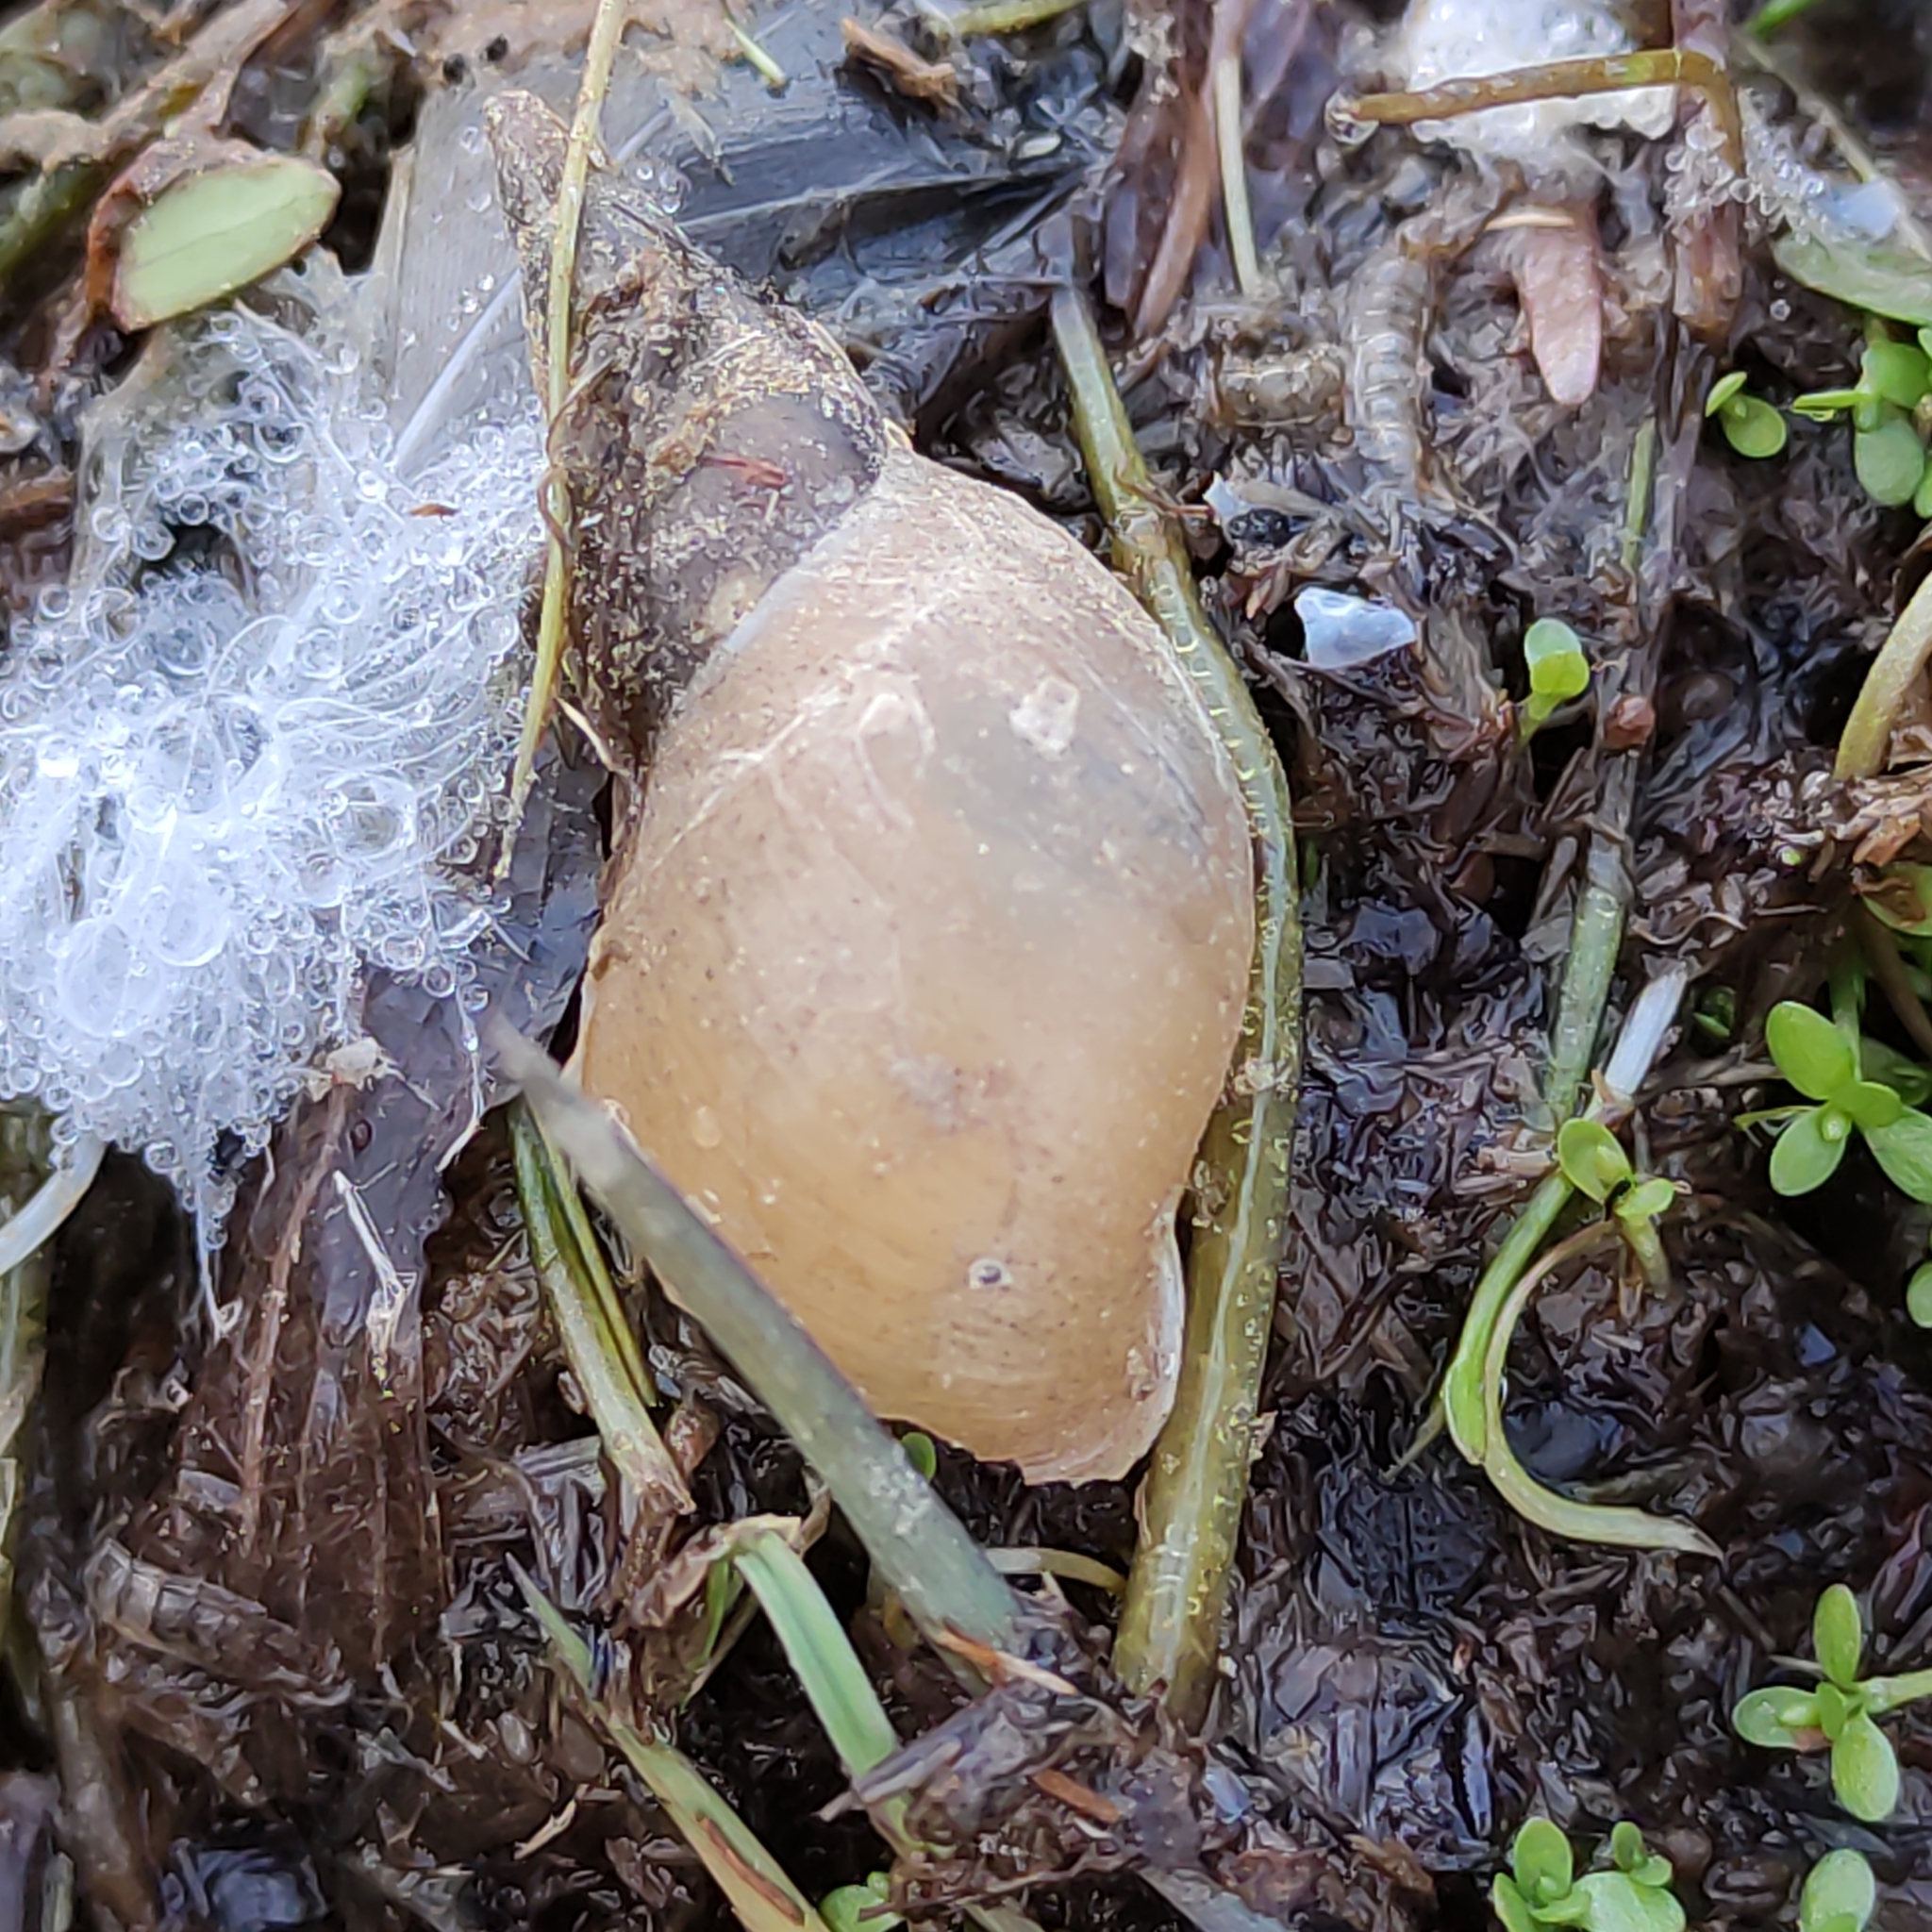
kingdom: Animalia
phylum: Mollusca
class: Gastropoda
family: Lymnaeidae
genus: Lymnaea
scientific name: Lymnaea stagnalis
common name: Great pond snail
